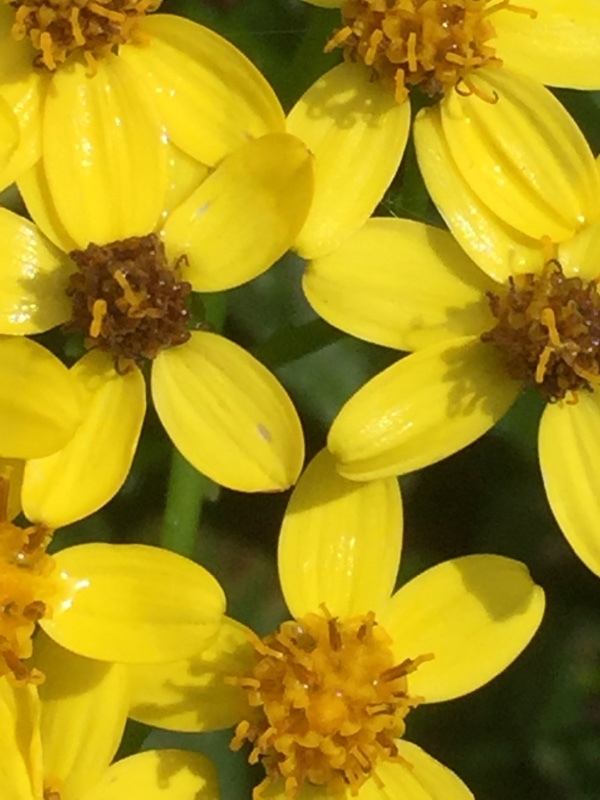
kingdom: Plantae
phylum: Tracheophyta
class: Magnoliopsida
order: Asterales
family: Asteraceae
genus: Senecio
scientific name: Senecio angulatus
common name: Climbing groundsel
